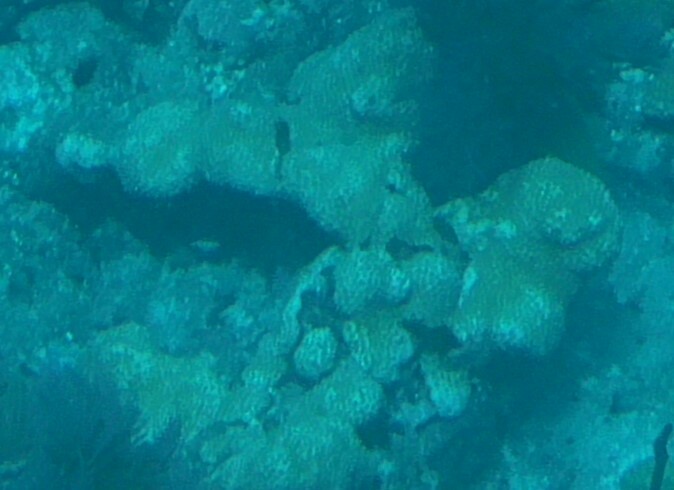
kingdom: Animalia
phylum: Cnidaria
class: Anthozoa
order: Zoantharia
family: Sphenopidae
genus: Palythoa
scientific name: Palythoa caribaeorum
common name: Encrusting colonial anemone
